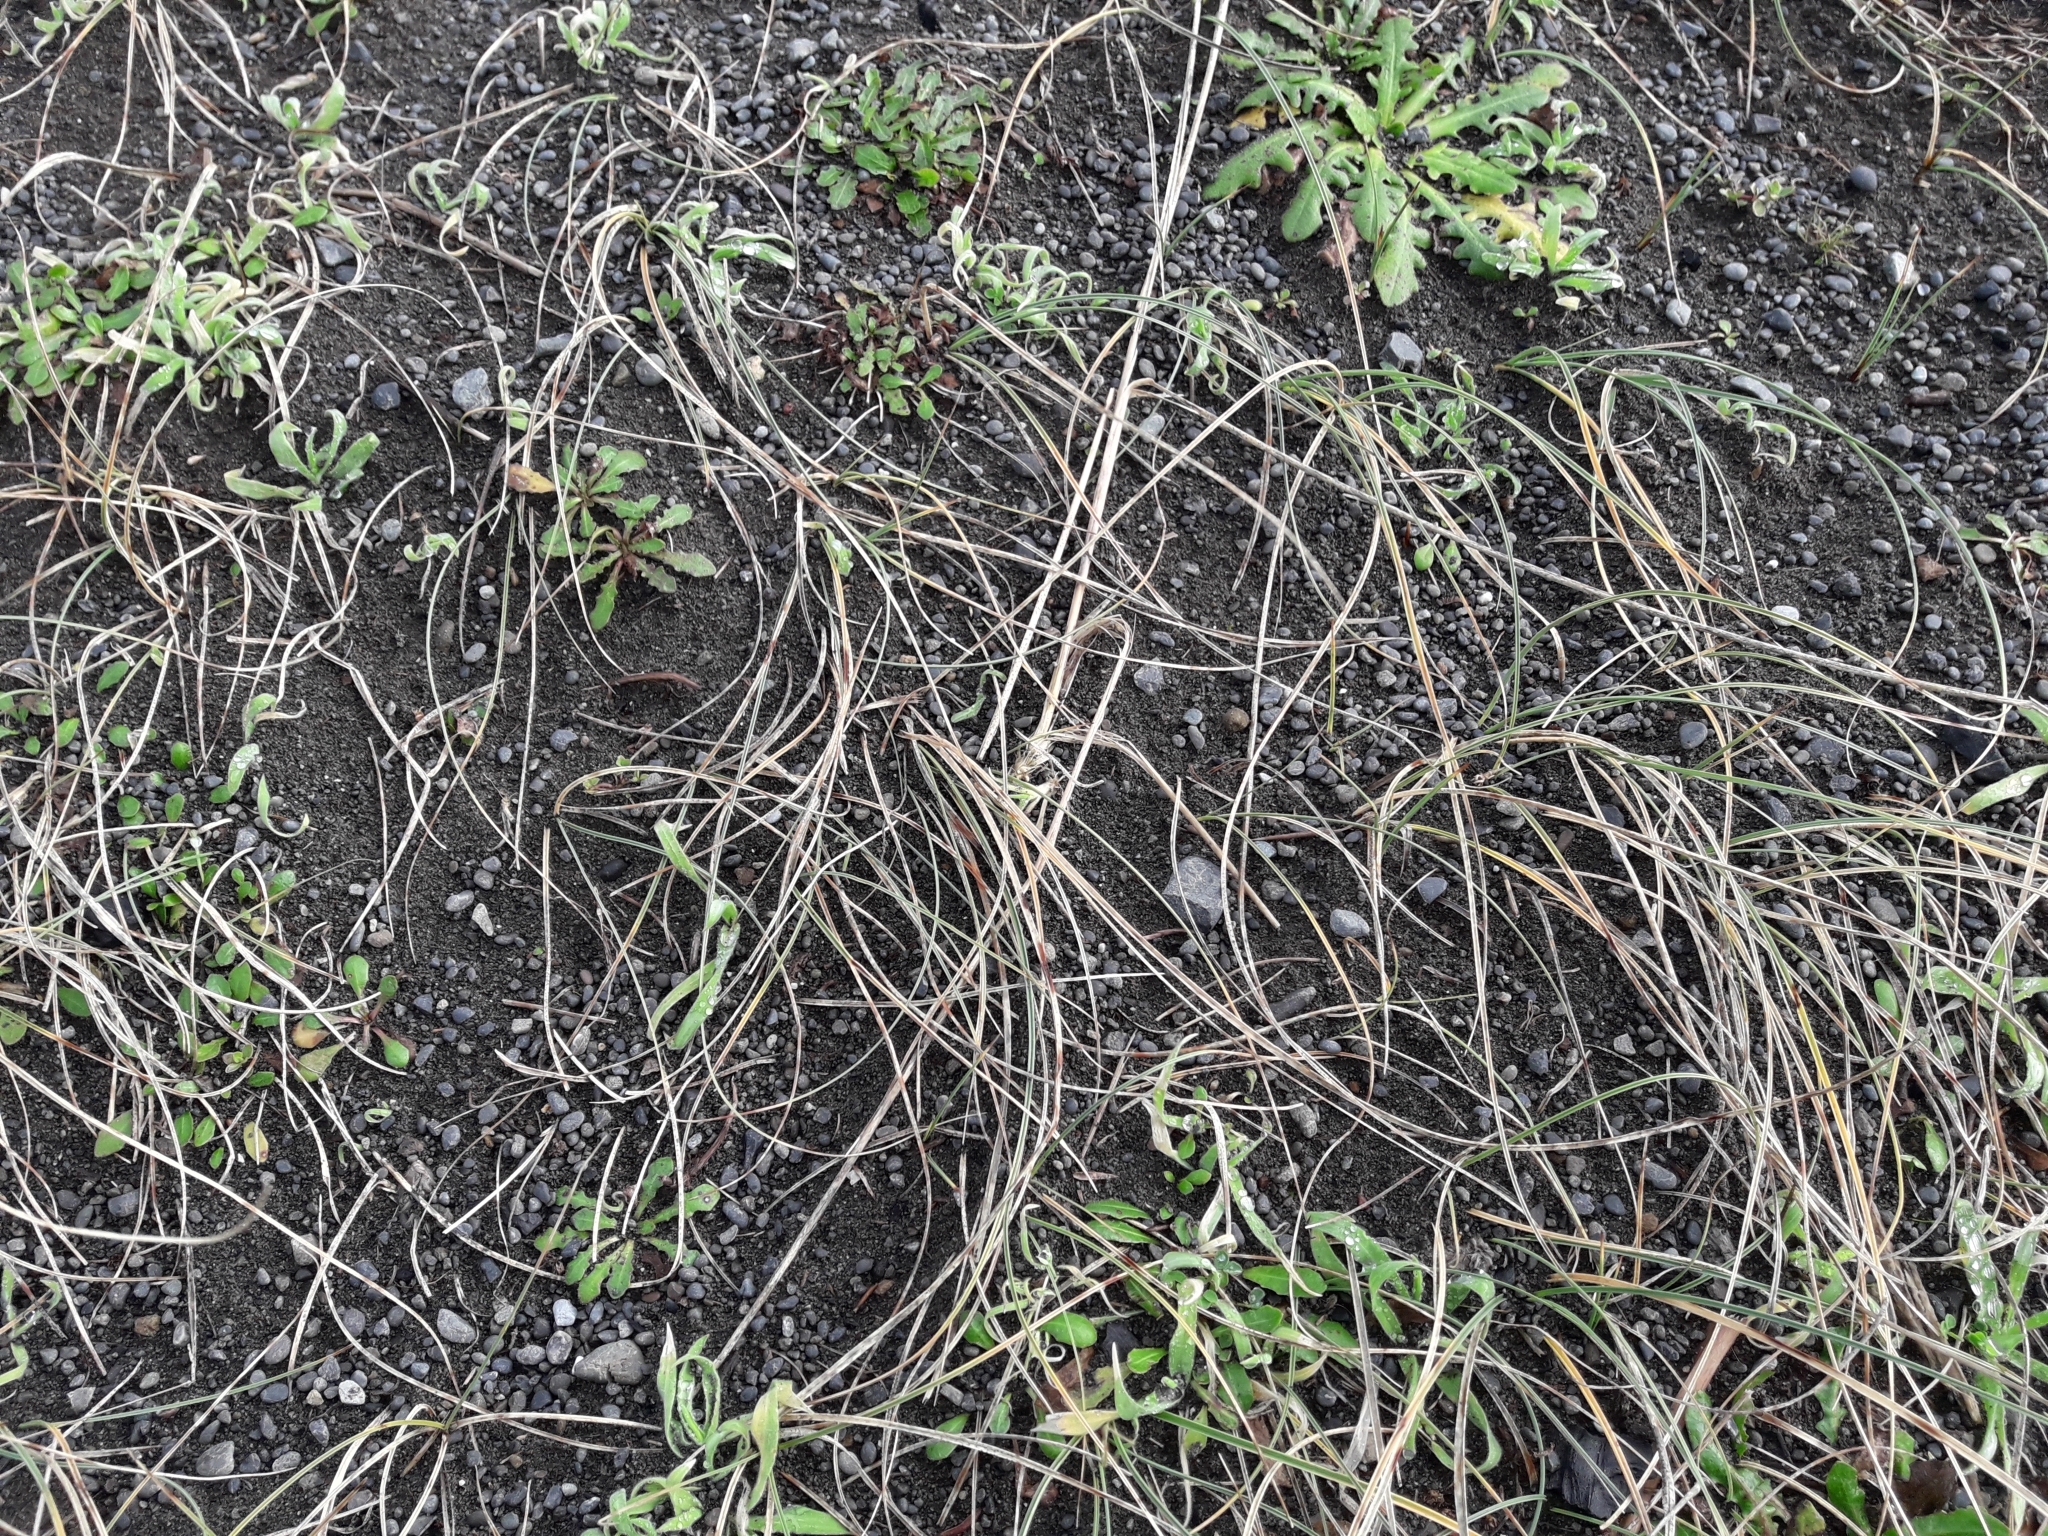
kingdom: Plantae
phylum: Tracheophyta
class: Liliopsida
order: Poales
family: Cyperaceae
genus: Carex
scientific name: Carex pumila
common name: Dwarf sedge
